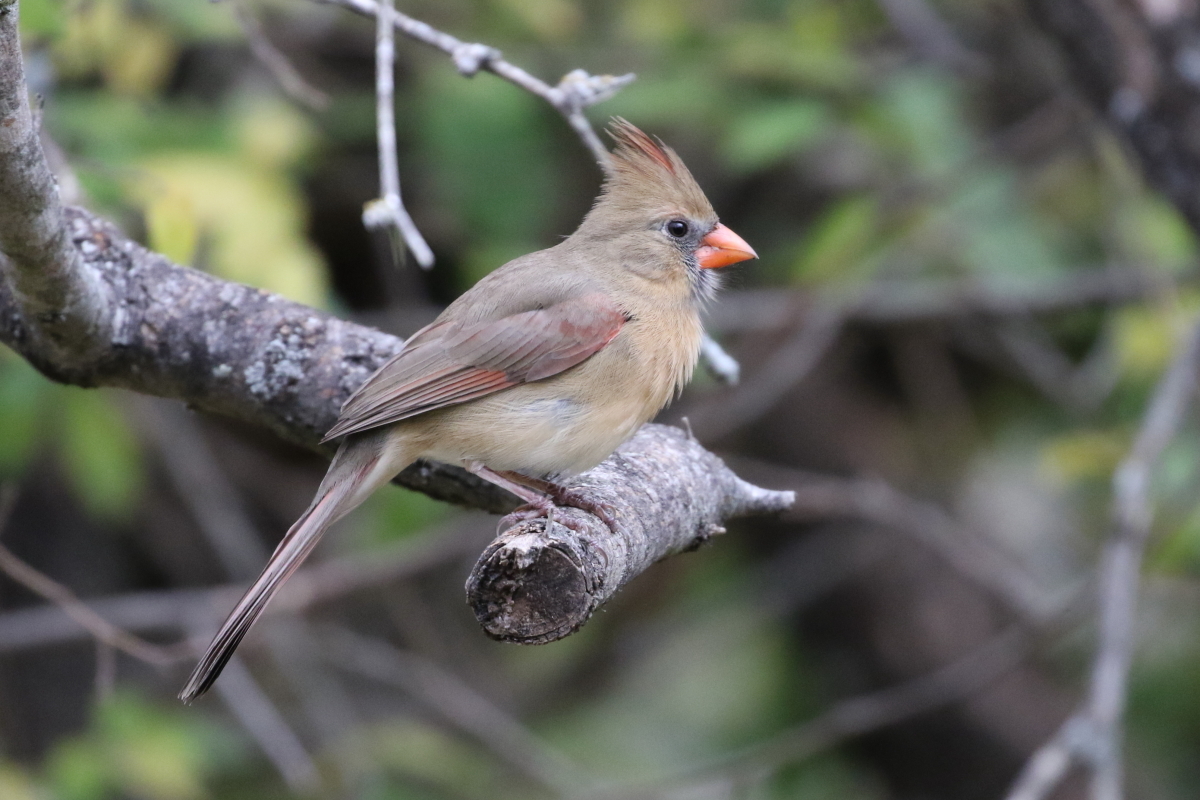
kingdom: Animalia
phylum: Chordata
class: Aves
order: Passeriformes
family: Cardinalidae
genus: Cardinalis
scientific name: Cardinalis cardinalis
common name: Northern cardinal
